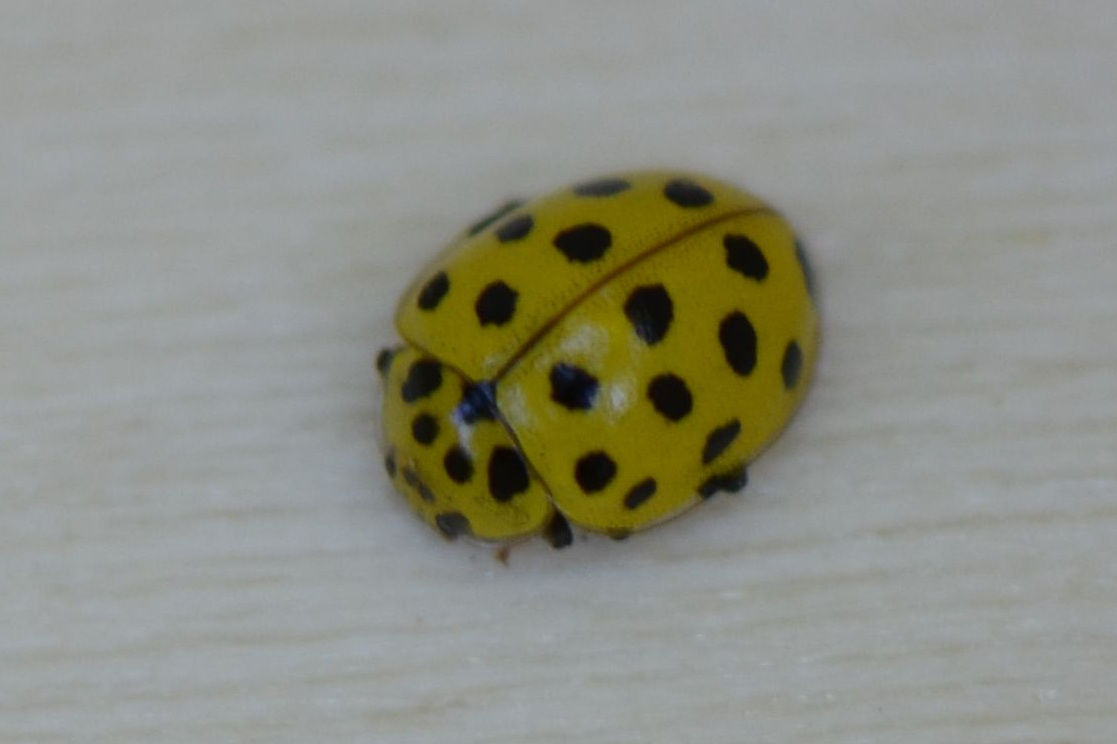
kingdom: Animalia
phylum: Arthropoda
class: Insecta
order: Coleoptera
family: Coccinellidae
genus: Psyllobora
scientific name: Psyllobora vigintiduopunctata
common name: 22-spot ladybird
